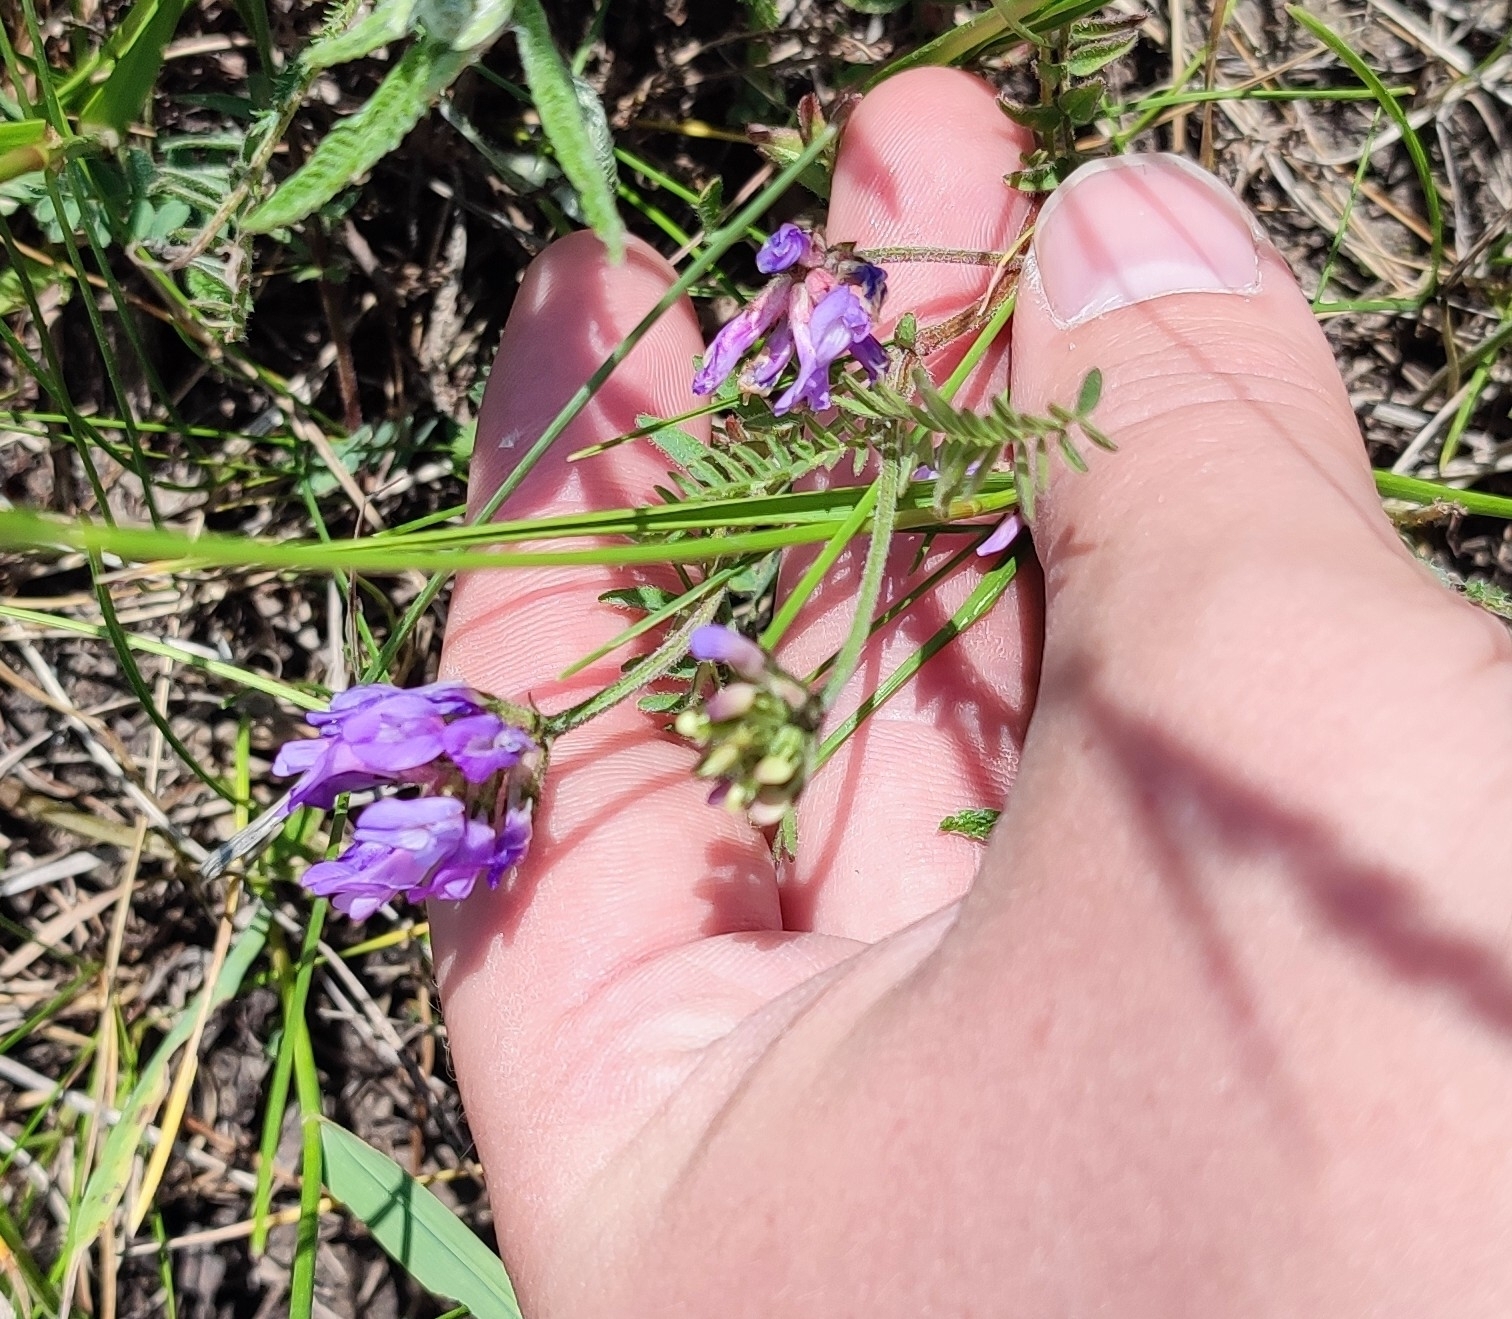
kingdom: Plantae
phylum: Tracheophyta
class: Magnoliopsida
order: Fabales
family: Fabaceae
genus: Astragalus
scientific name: Astragalus danicus
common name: Purple milk-vetch
